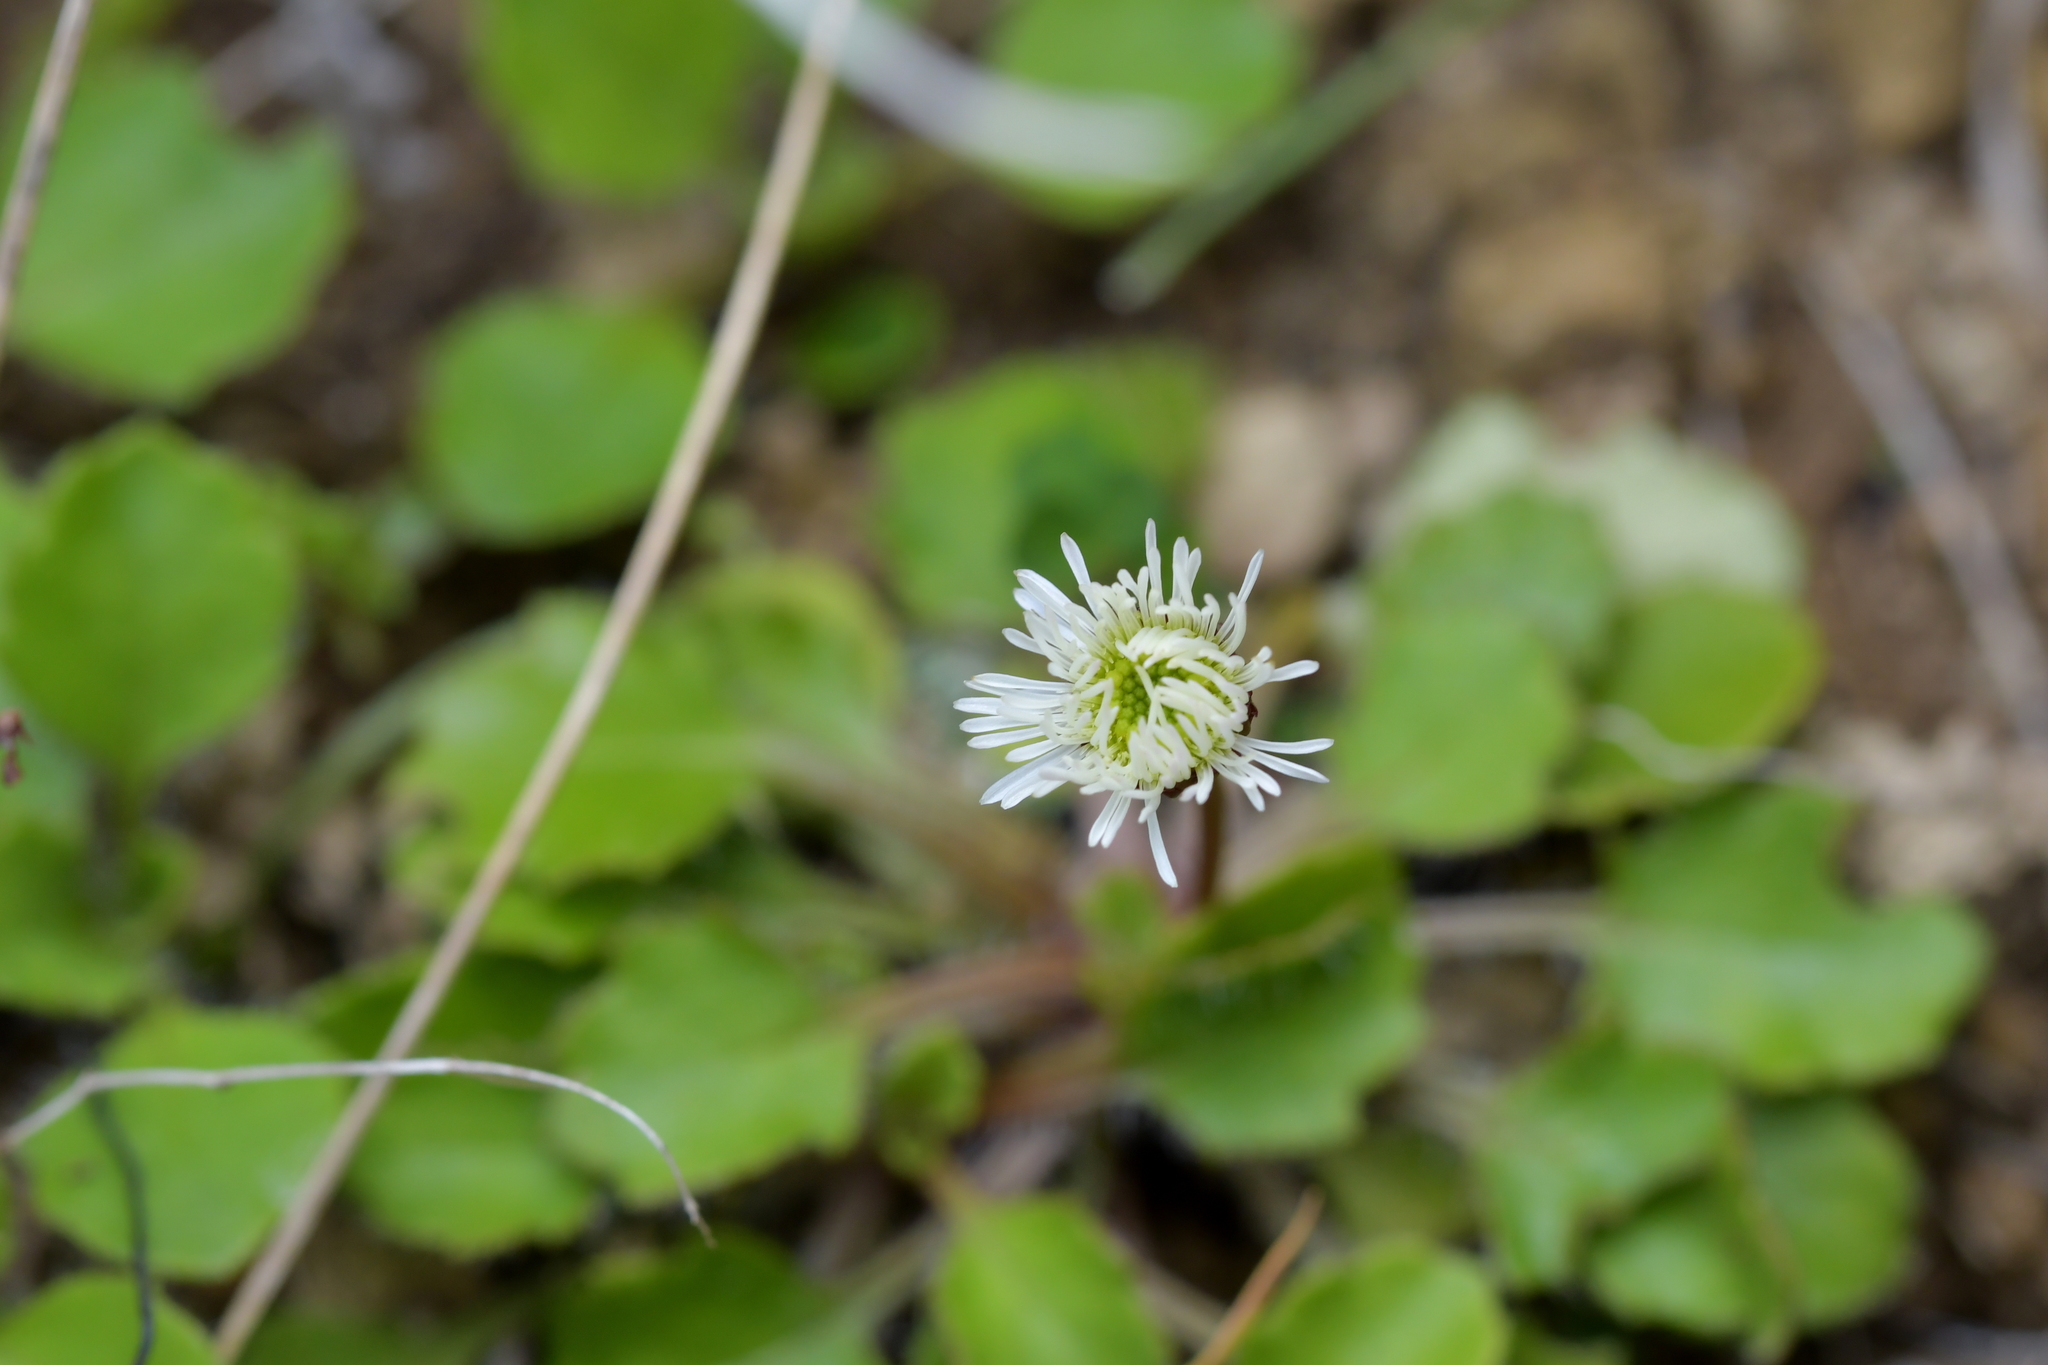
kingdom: Plantae
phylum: Tracheophyta
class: Magnoliopsida
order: Asterales
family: Asteraceae
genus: Lagenophora
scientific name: Lagenophora pumila
